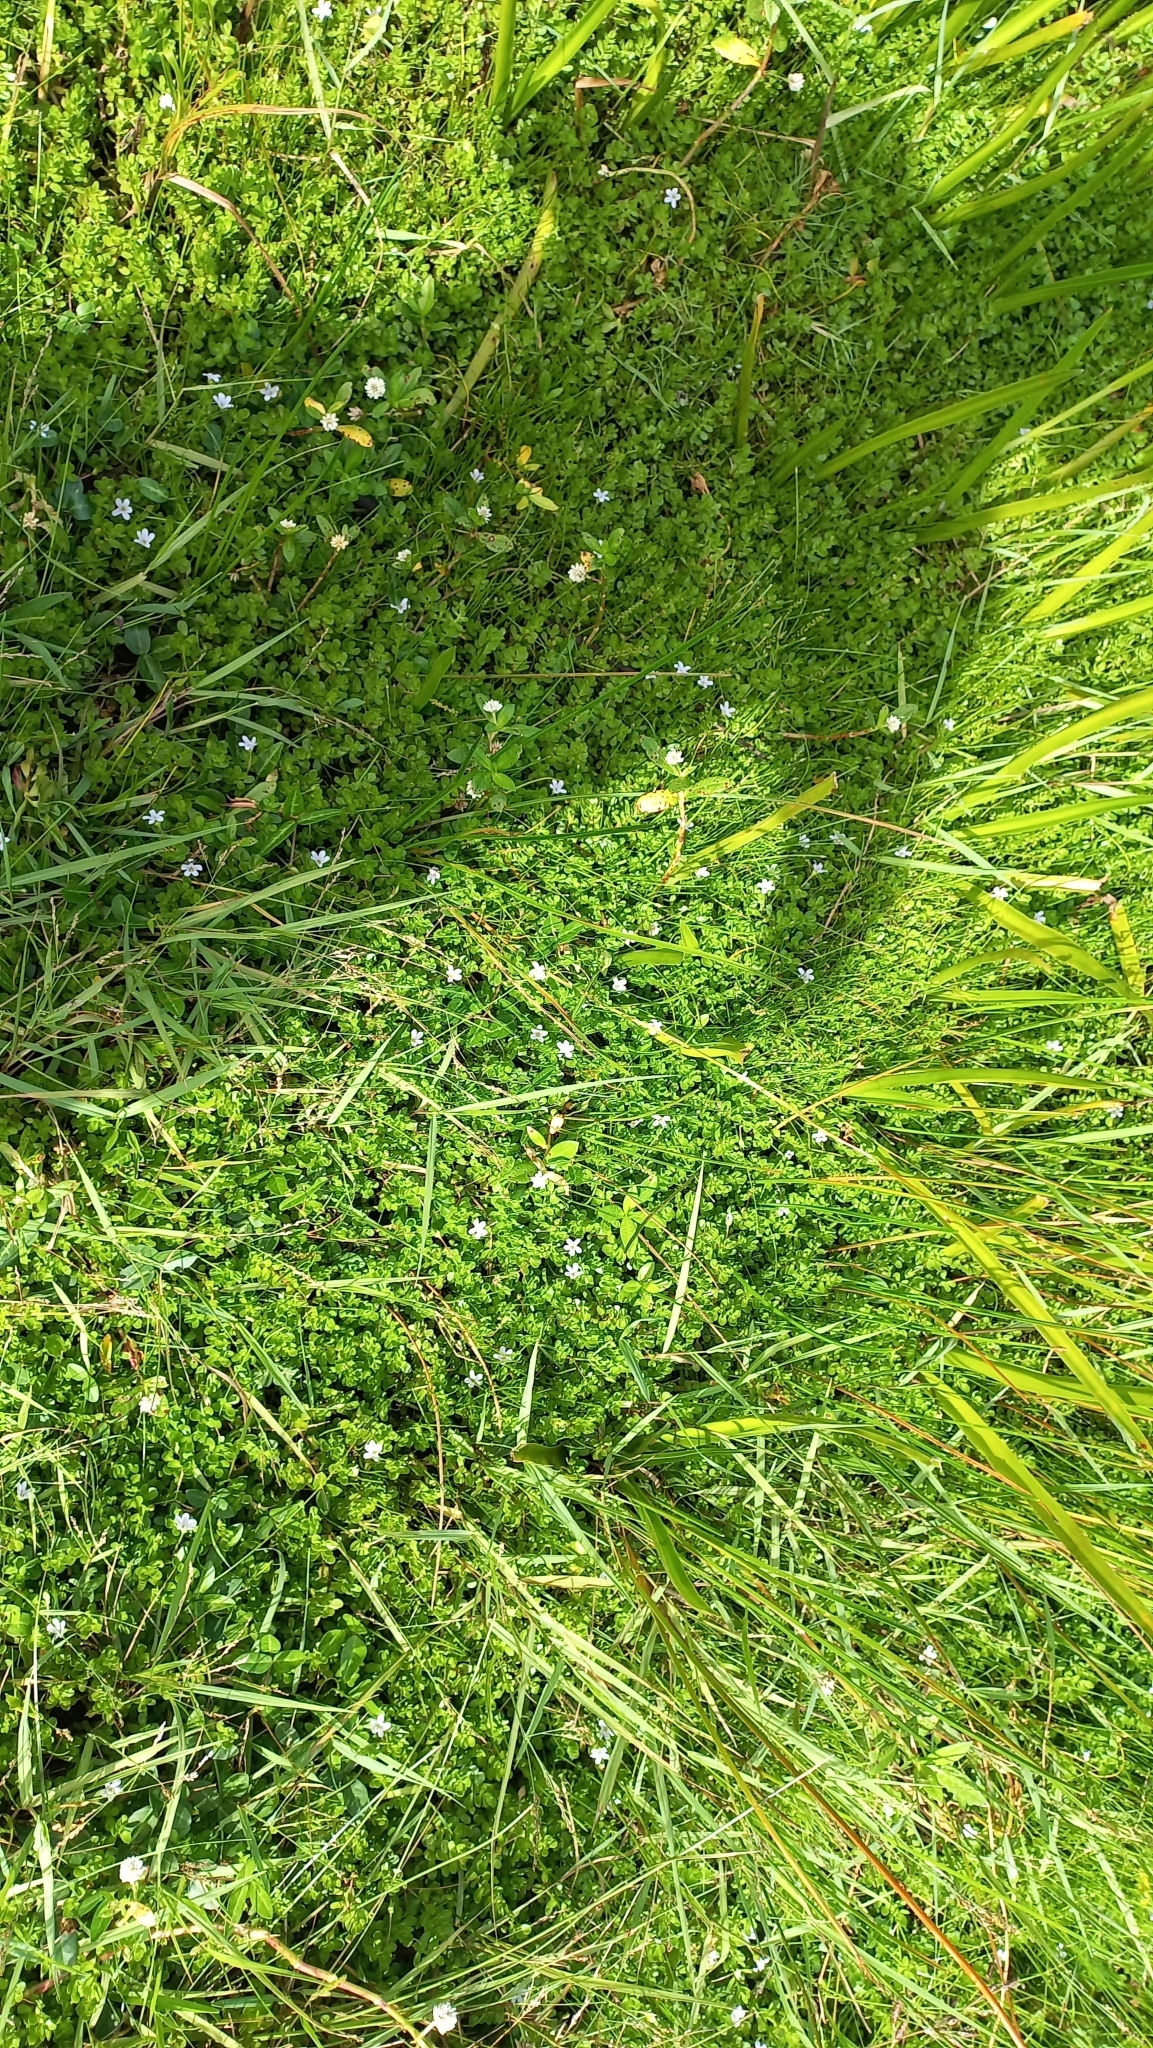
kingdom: Plantae
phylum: Tracheophyta
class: Magnoliopsida
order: Lamiales
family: Plantaginaceae
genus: Bacopa
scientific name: Bacopa monnieri
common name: Indian-pennywort
